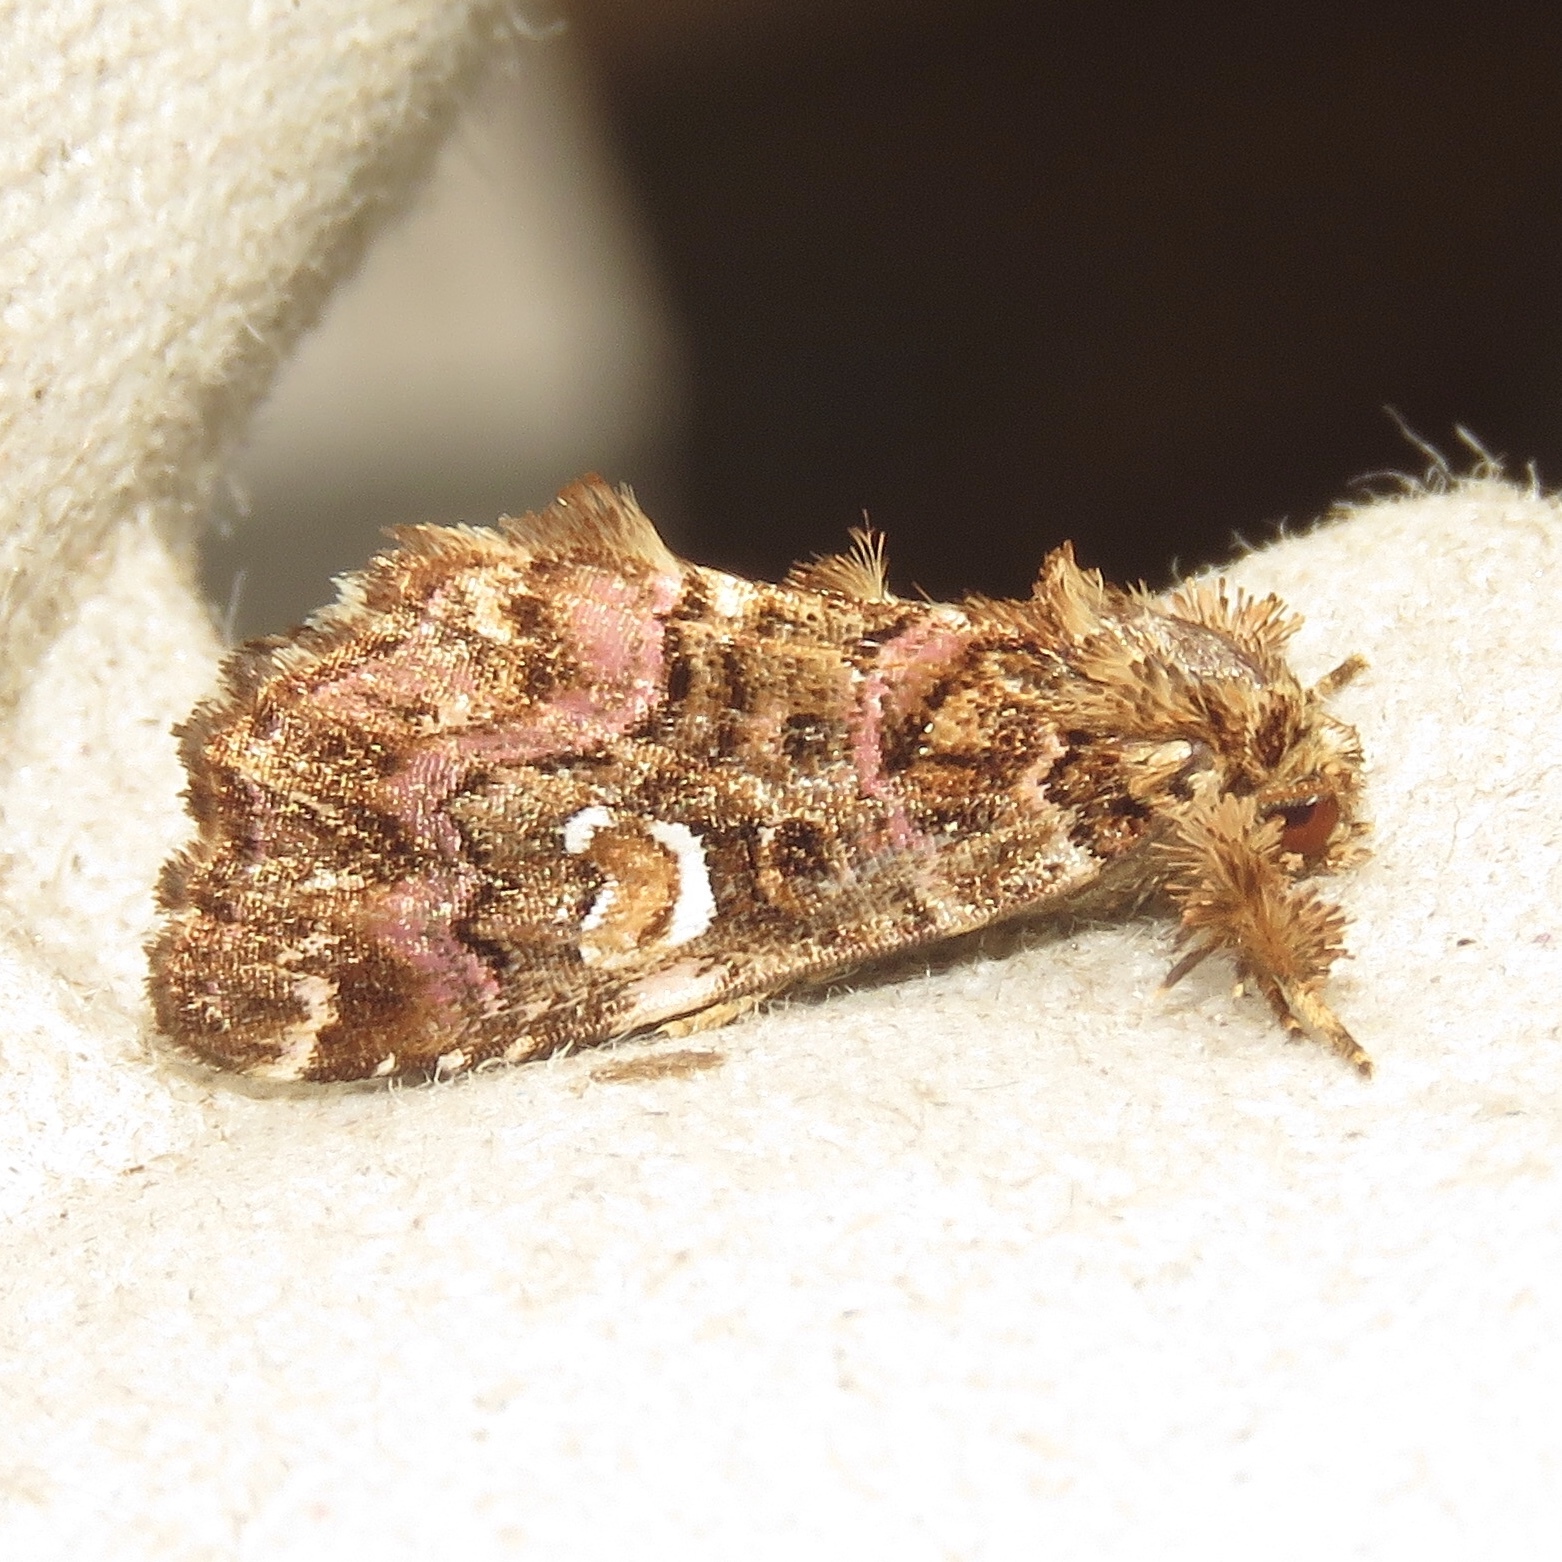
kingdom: Animalia
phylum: Arthropoda
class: Insecta
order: Lepidoptera
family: Noctuidae
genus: Callopistria
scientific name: Callopistria mollissima
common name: Pink-shaded fern moth
